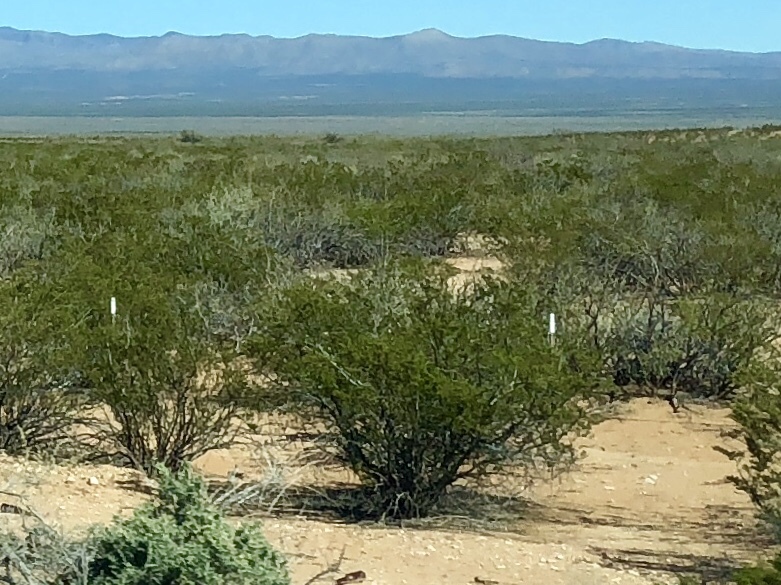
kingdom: Plantae
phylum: Tracheophyta
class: Magnoliopsida
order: Zygophyllales
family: Zygophyllaceae
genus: Larrea
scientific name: Larrea tridentata
